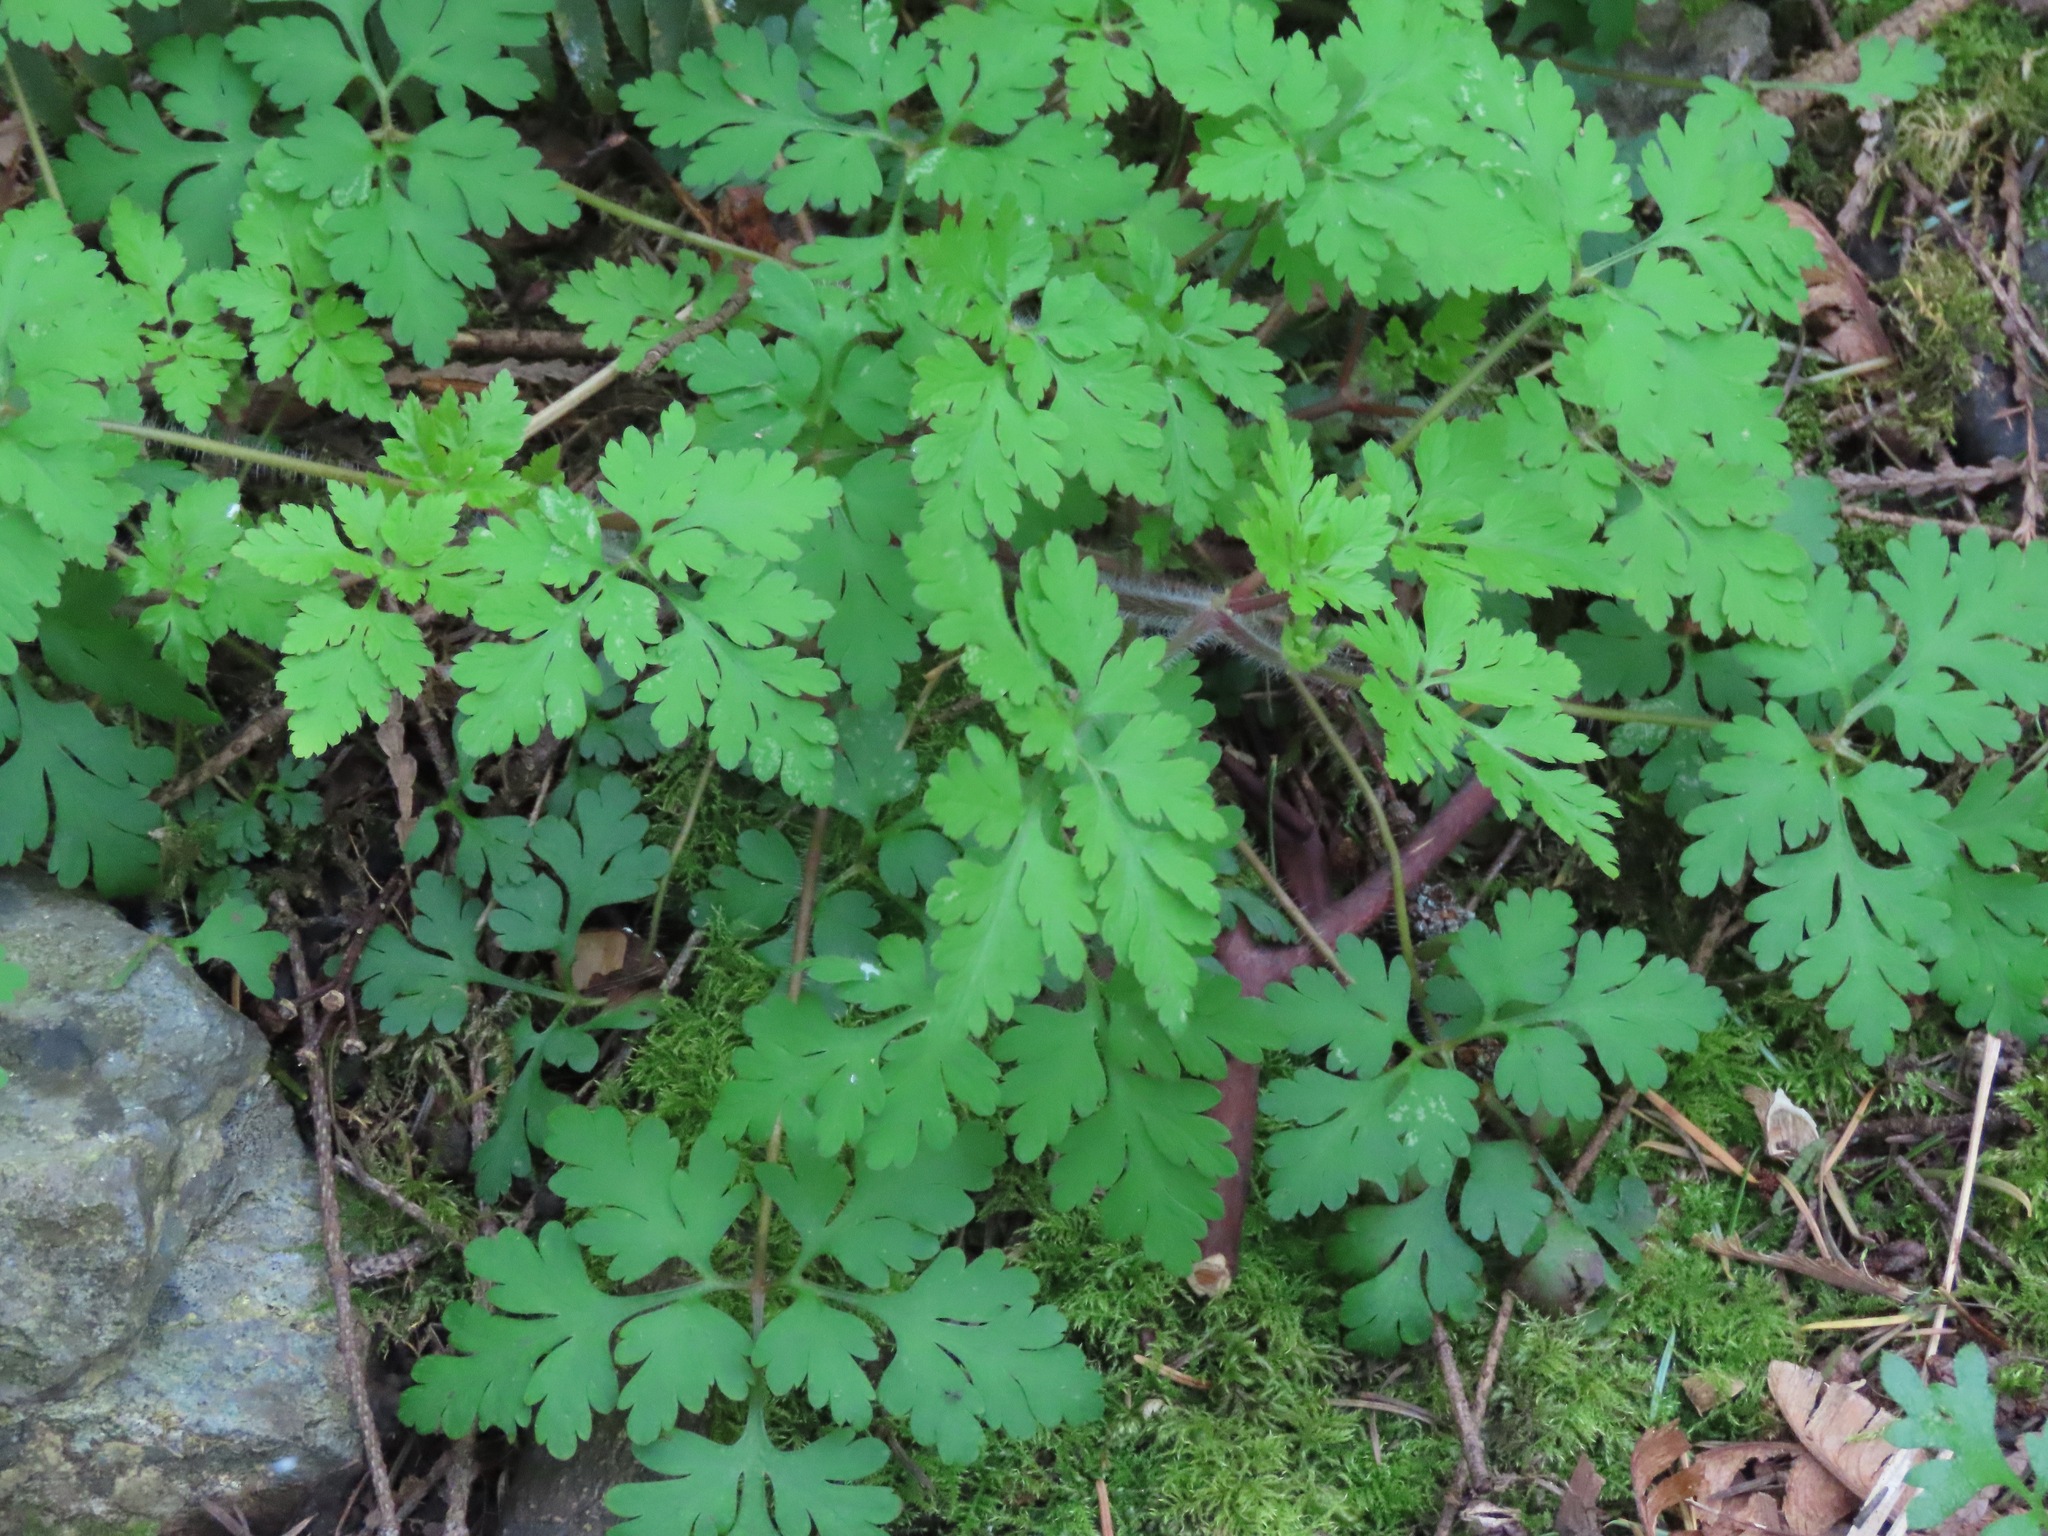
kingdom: Plantae
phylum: Tracheophyta
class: Magnoliopsida
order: Geraniales
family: Geraniaceae
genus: Geranium
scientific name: Geranium robertianum
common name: Herb-robert
